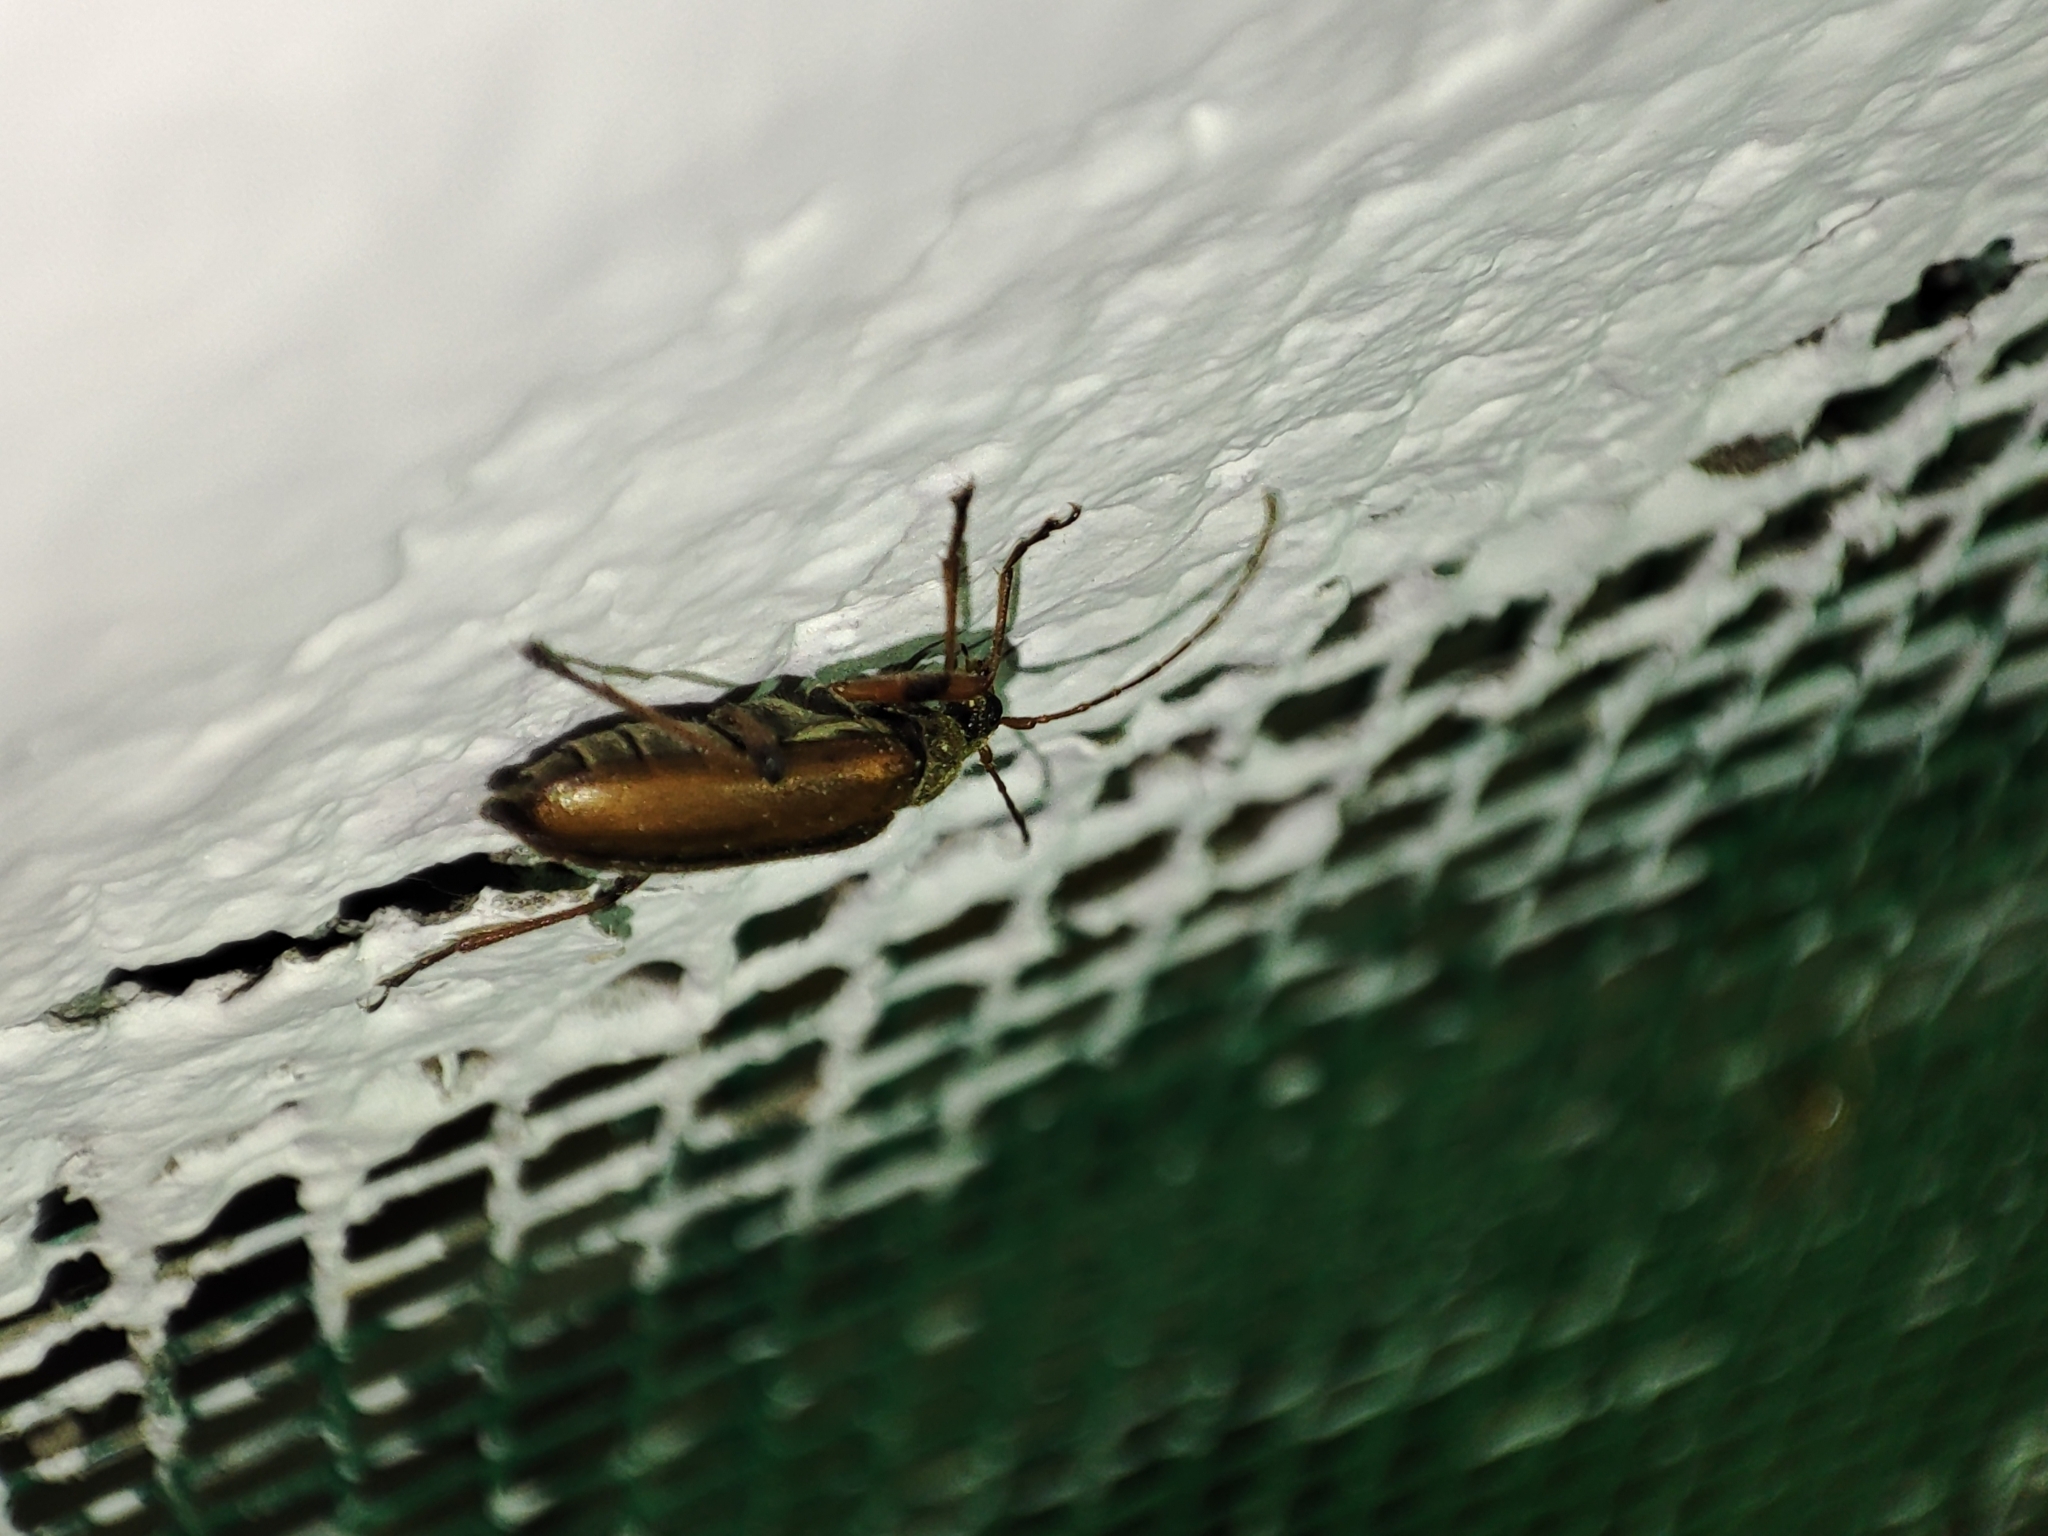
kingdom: Animalia
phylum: Arthropoda
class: Insecta
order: Coleoptera
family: Cerambycidae
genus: Cortodera
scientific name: Cortodera humeralis
